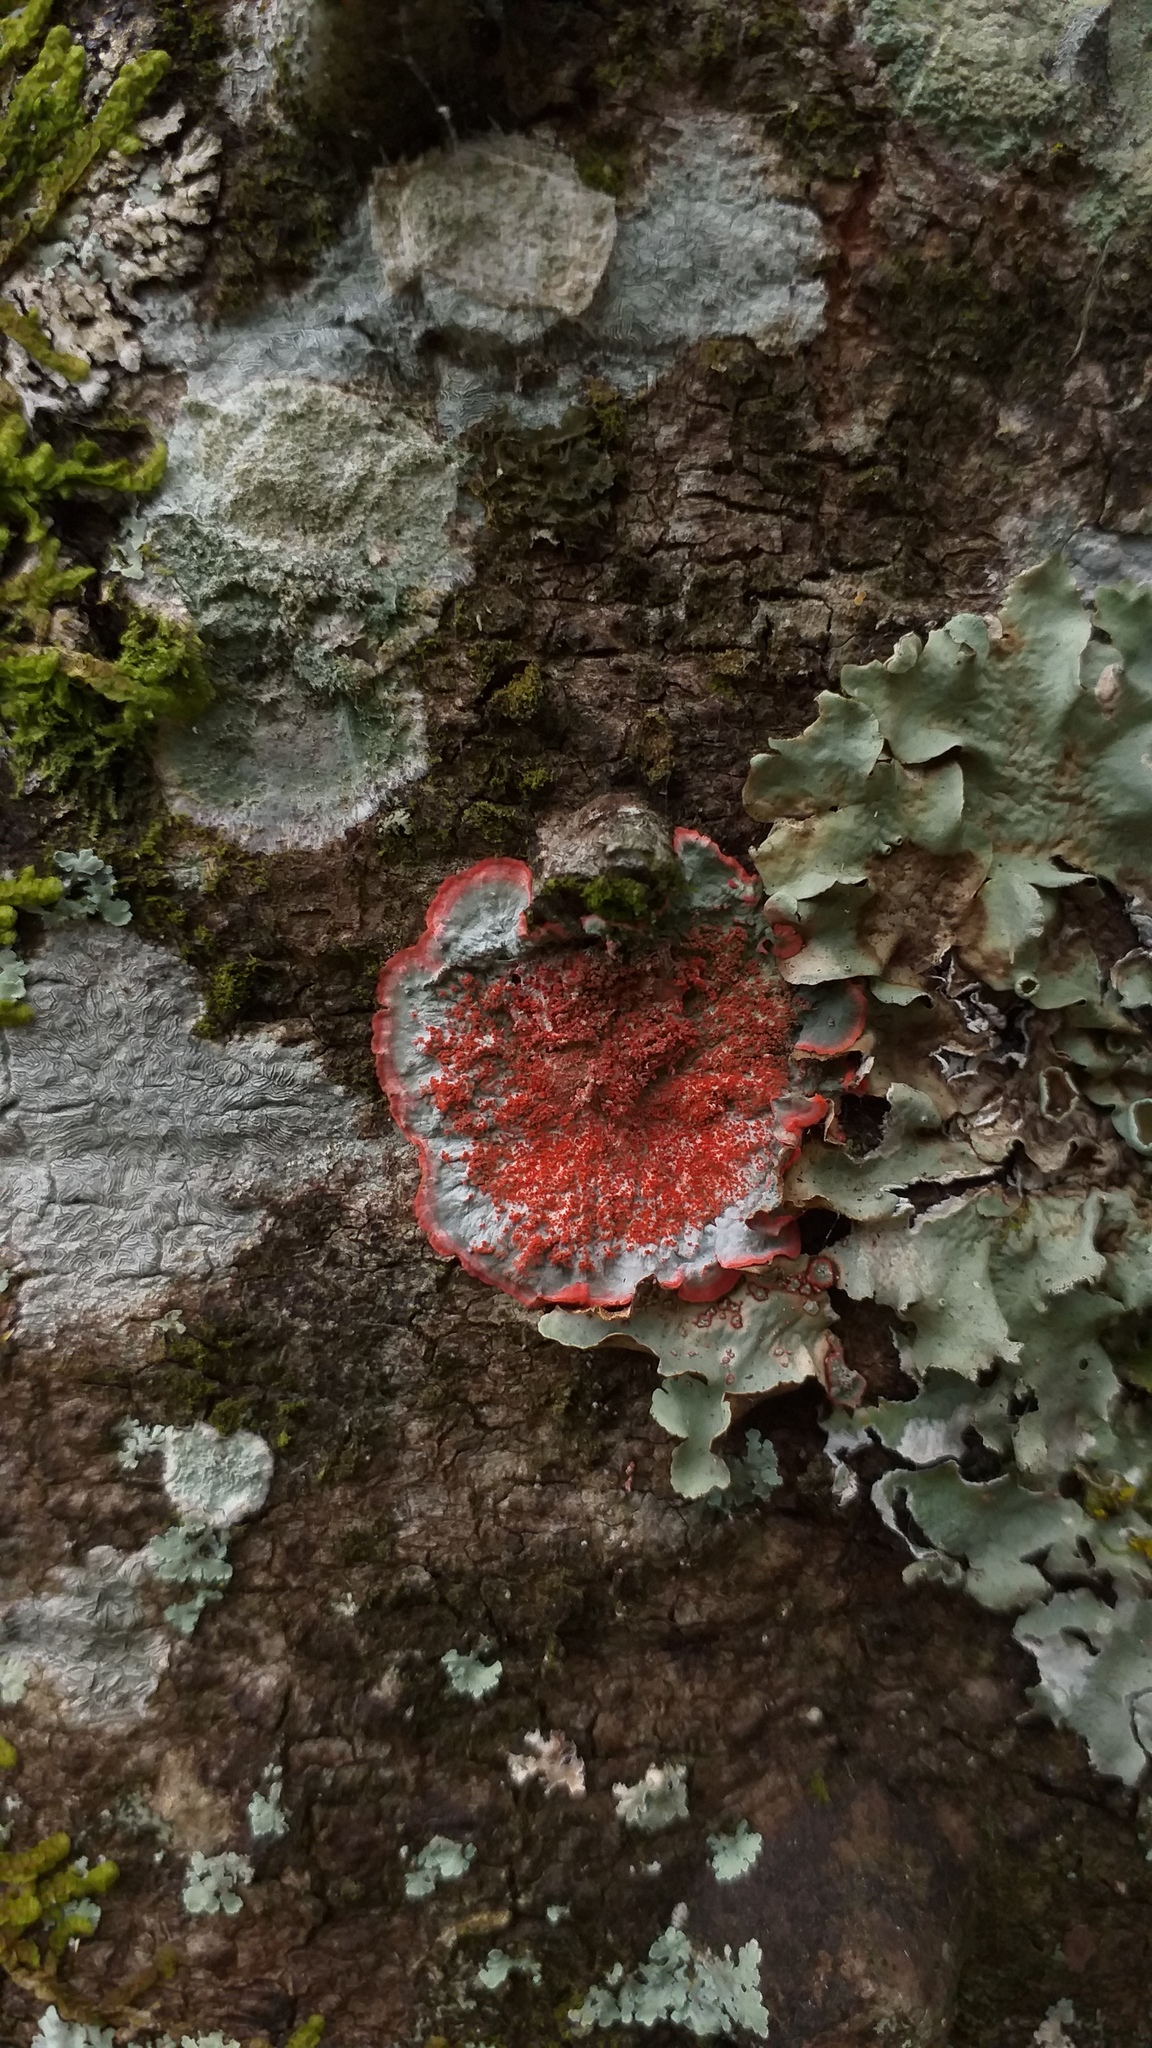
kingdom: Fungi
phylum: Ascomycota
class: Arthoniomycetes
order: Arthoniales
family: Arthoniaceae
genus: Herpothallon
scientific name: Herpothallon rubrocinctum
